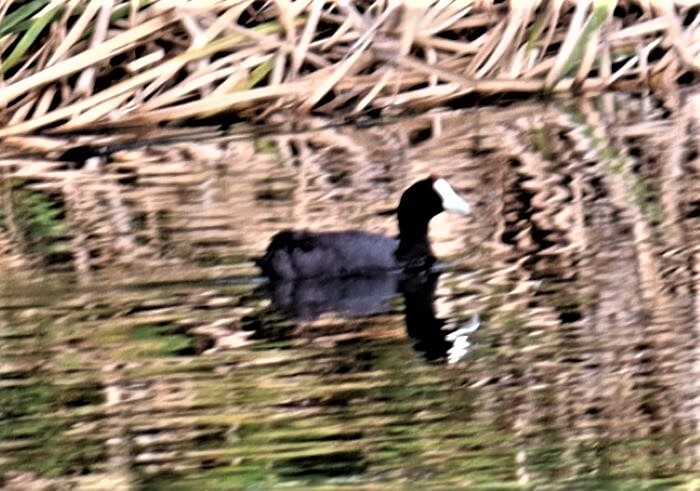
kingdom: Animalia
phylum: Chordata
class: Aves
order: Gruiformes
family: Rallidae
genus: Fulica
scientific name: Fulica cristata
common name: Red-knobbed coot
